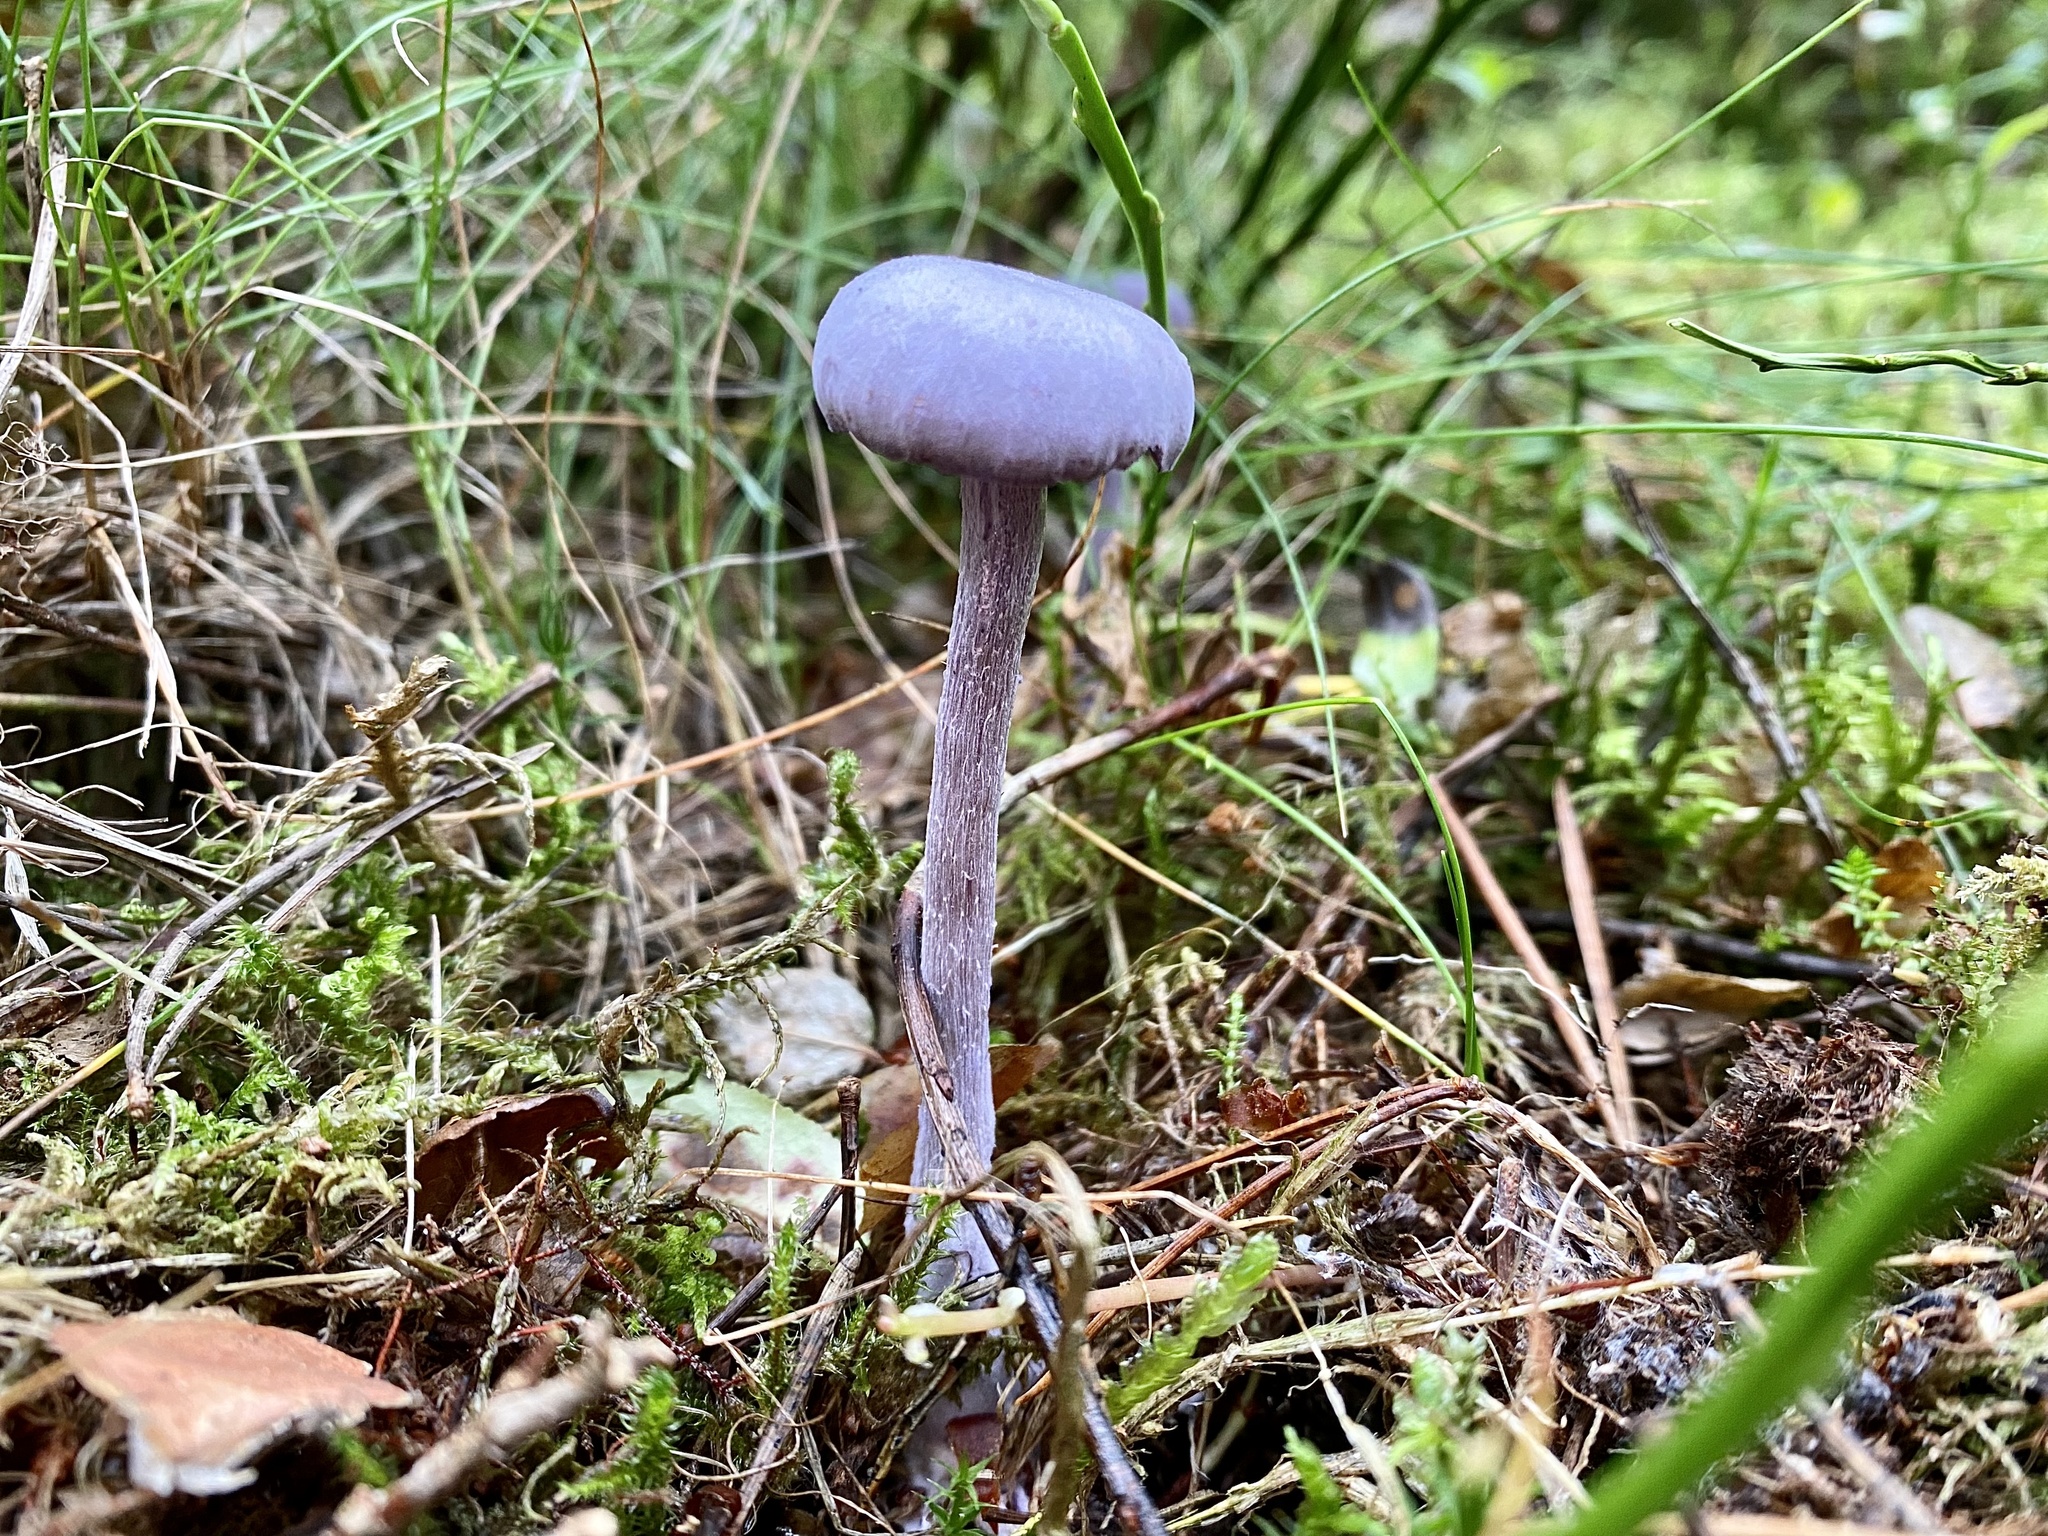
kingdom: Fungi
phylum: Basidiomycota
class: Agaricomycetes
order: Agaricales
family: Hydnangiaceae
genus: Laccaria
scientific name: Laccaria amethystina
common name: Amethyst deceiver
